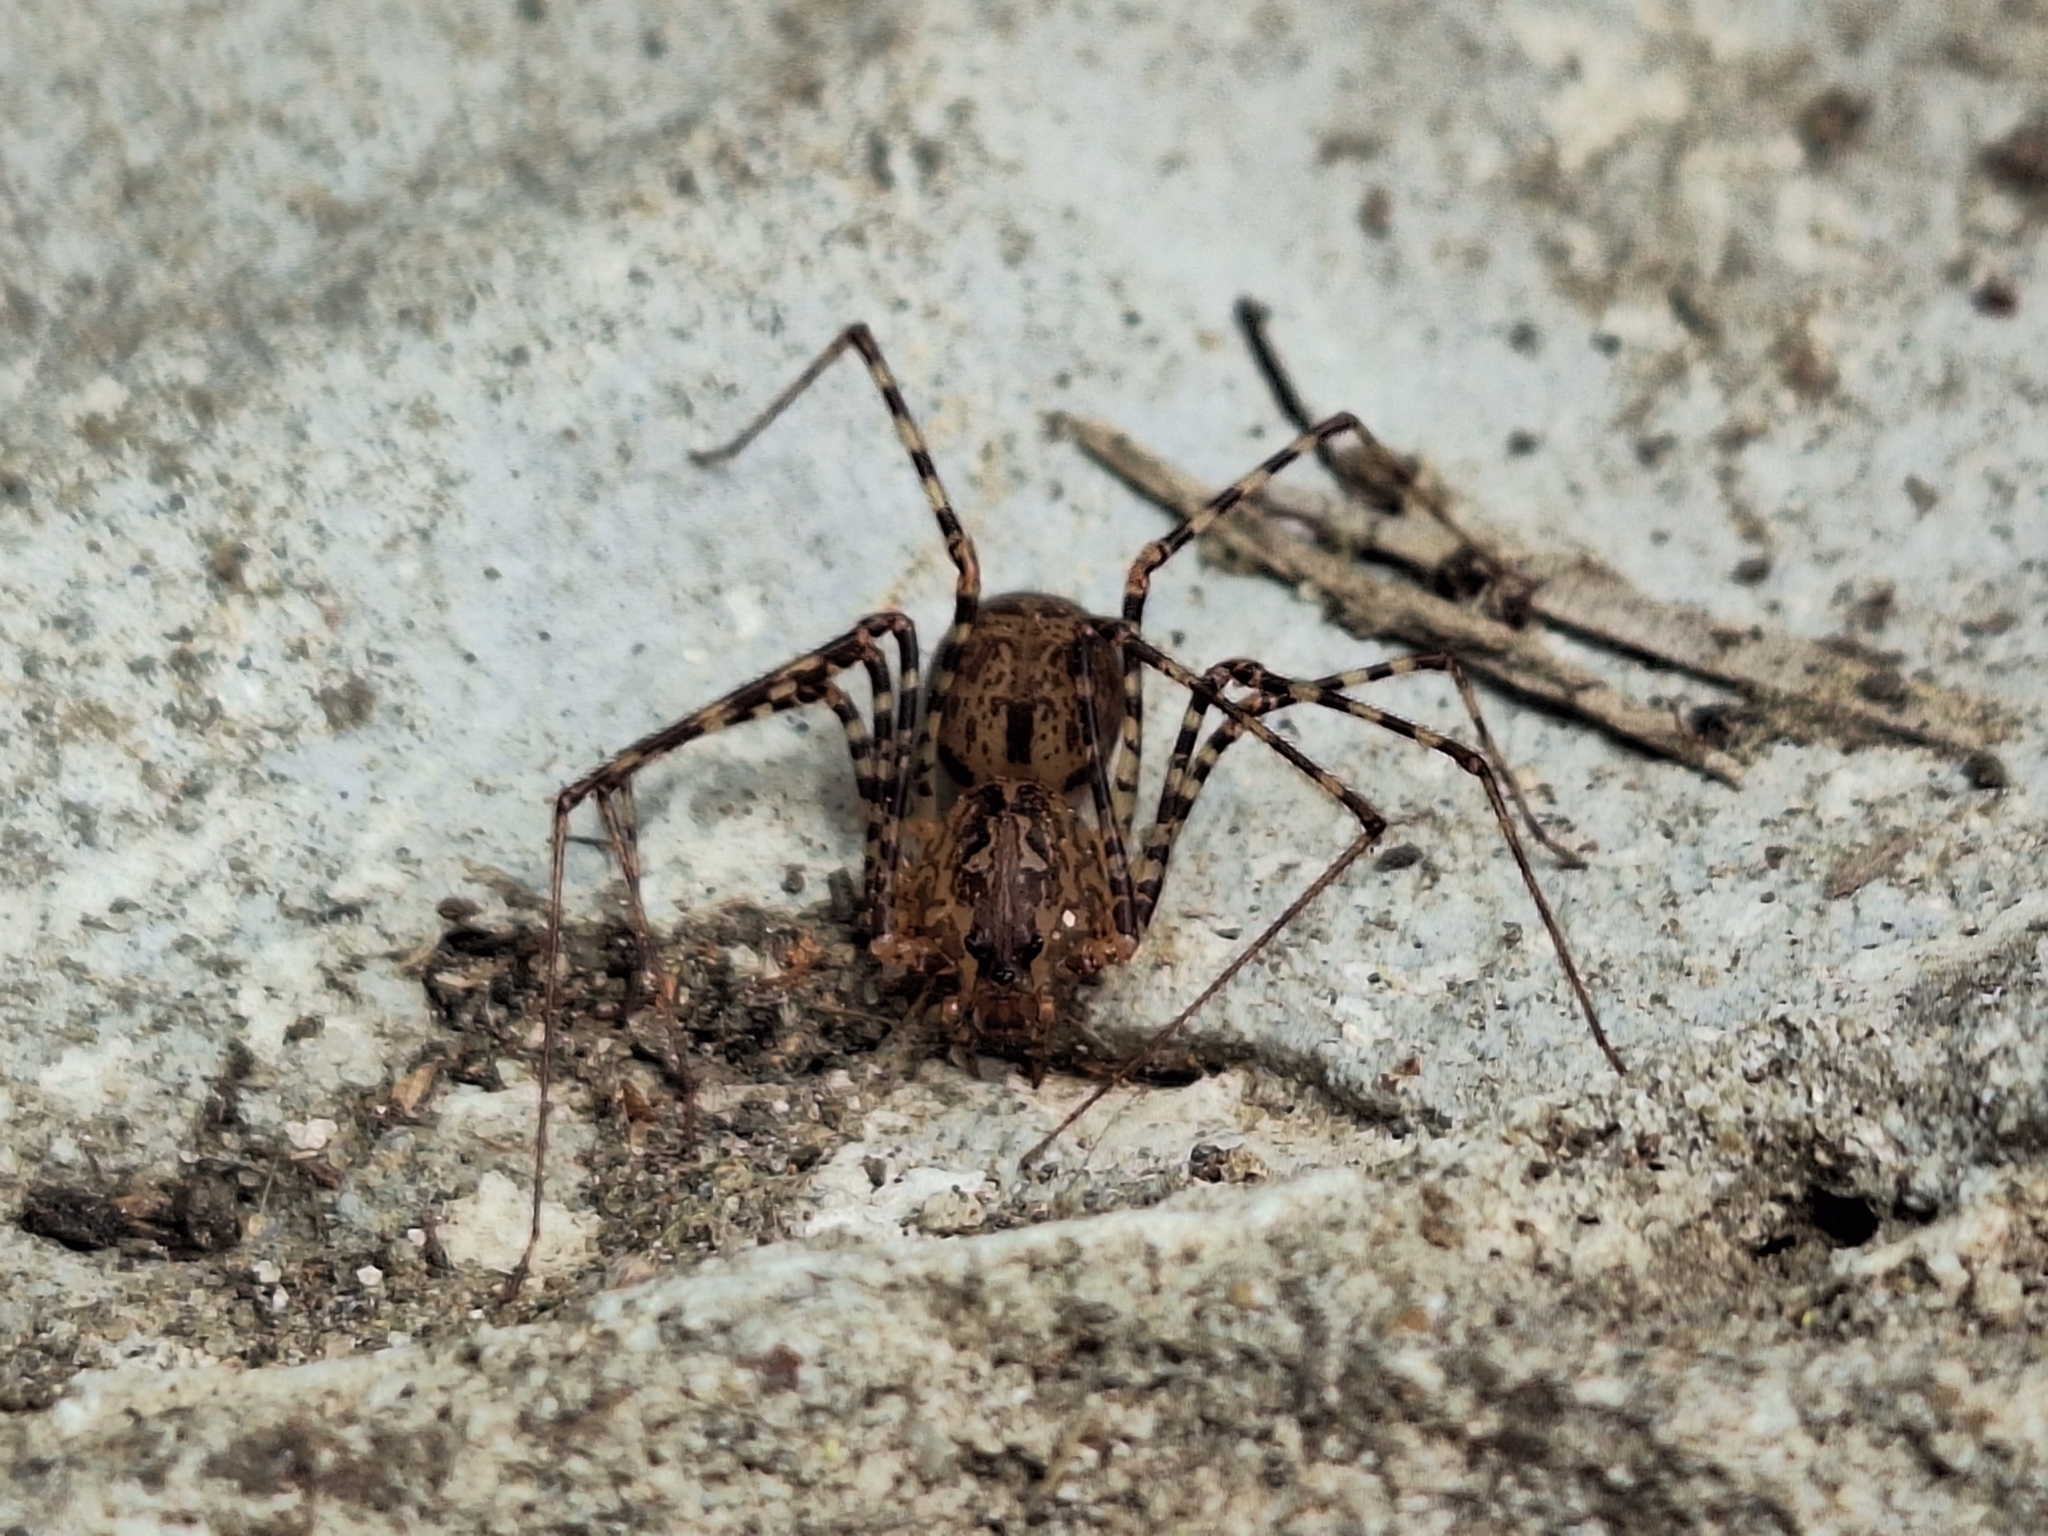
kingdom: Animalia
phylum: Arthropoda
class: Arachnida
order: Araneae
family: Scytodidae
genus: Scytodes
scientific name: Scytodes globula
